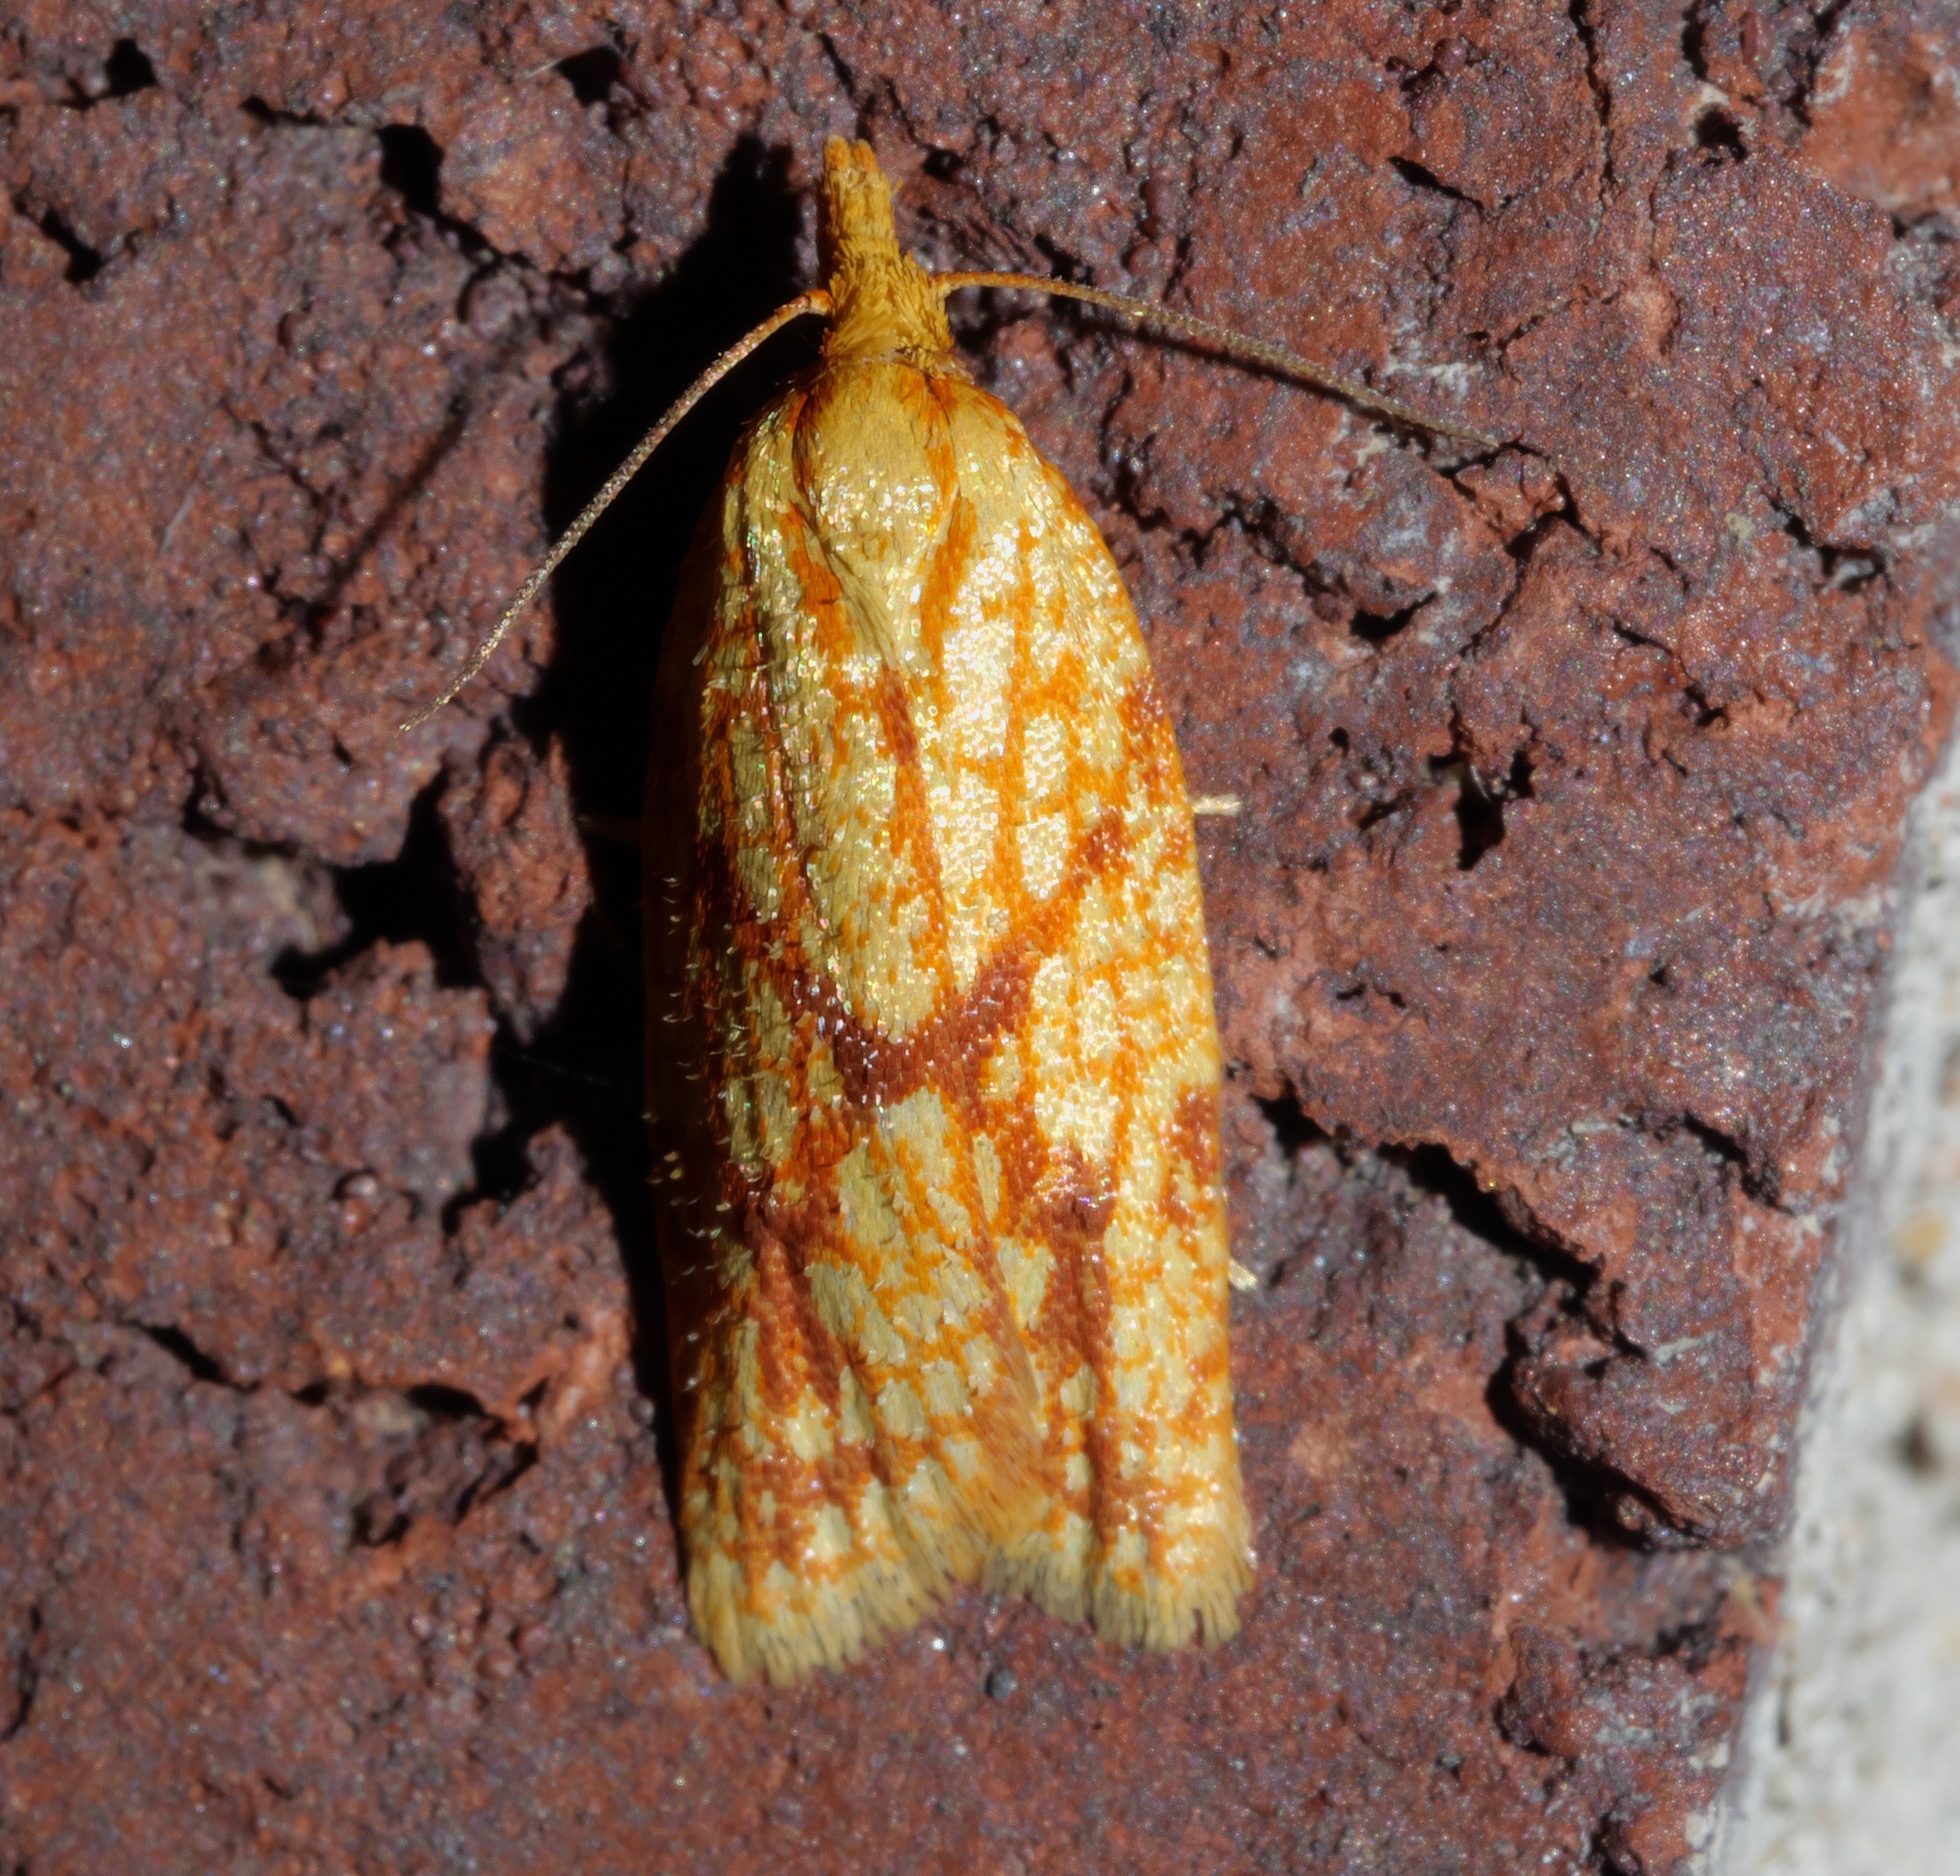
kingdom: Animalia
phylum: Arthropoda
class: Insecta
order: Lepidoptera
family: Tortricidae
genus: Sparganothis
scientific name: Sparganothis sulfureana
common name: Sparganothis fruitworm moth
